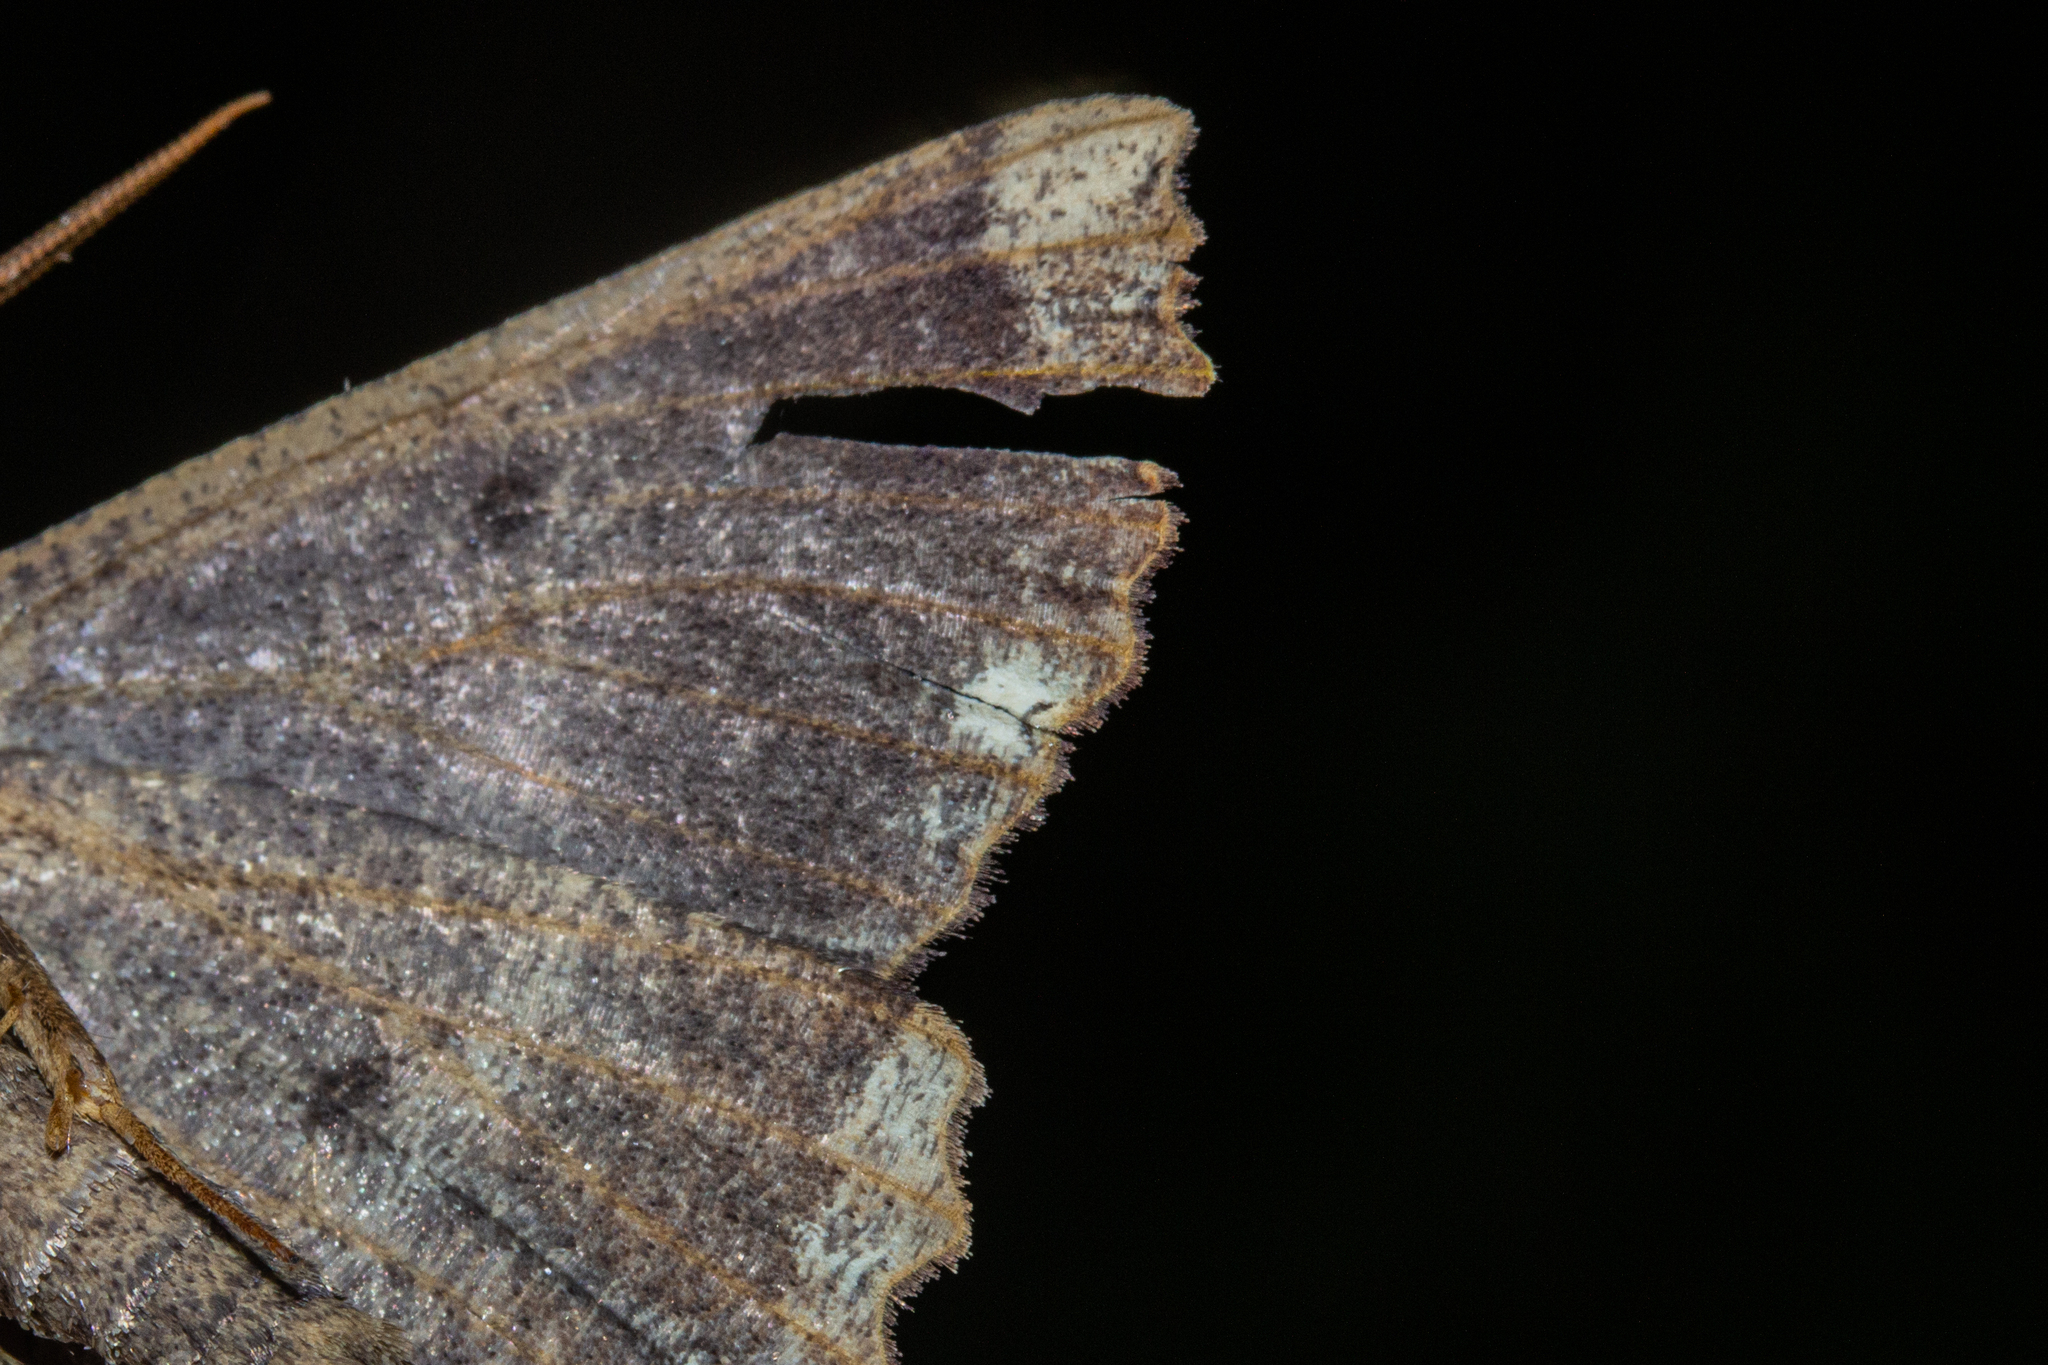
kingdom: Animalia
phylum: Arthropoda
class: Insecta
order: Lepidoptera
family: Geometridae
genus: Gellonia
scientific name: Gellonia dejectaria
